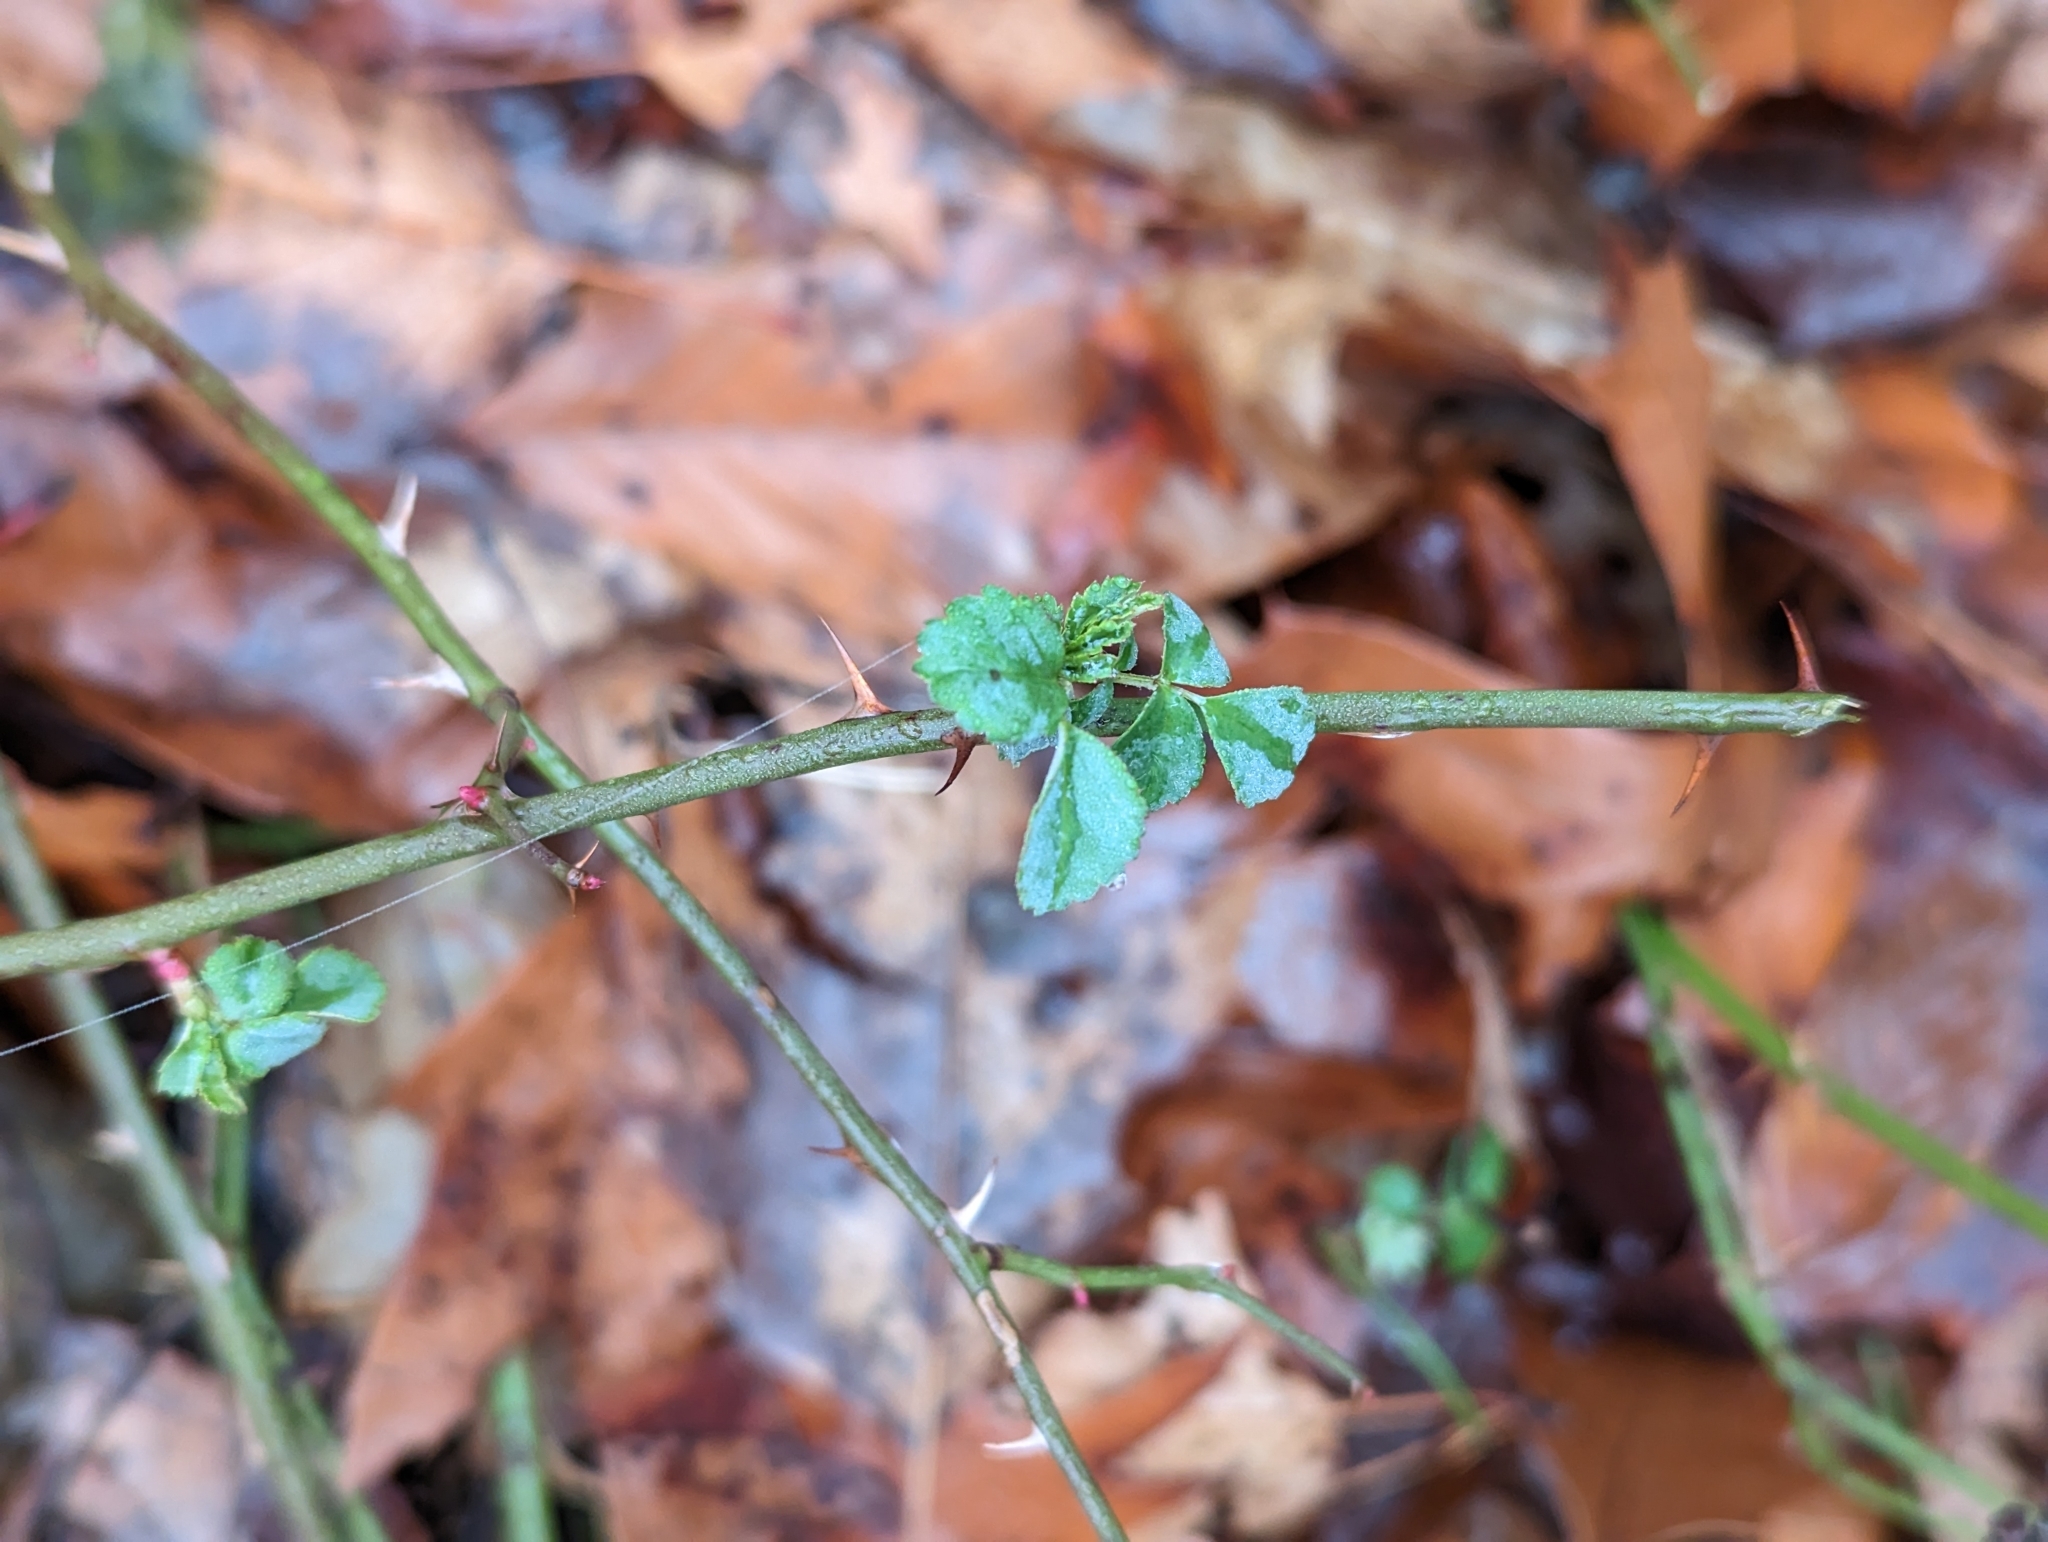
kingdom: Plantae
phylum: Tracheophyta
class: Magnoliopsida
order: Rosales
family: Rosaceae
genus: Rosa
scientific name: Rosa multiflora
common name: Multiflora rose
